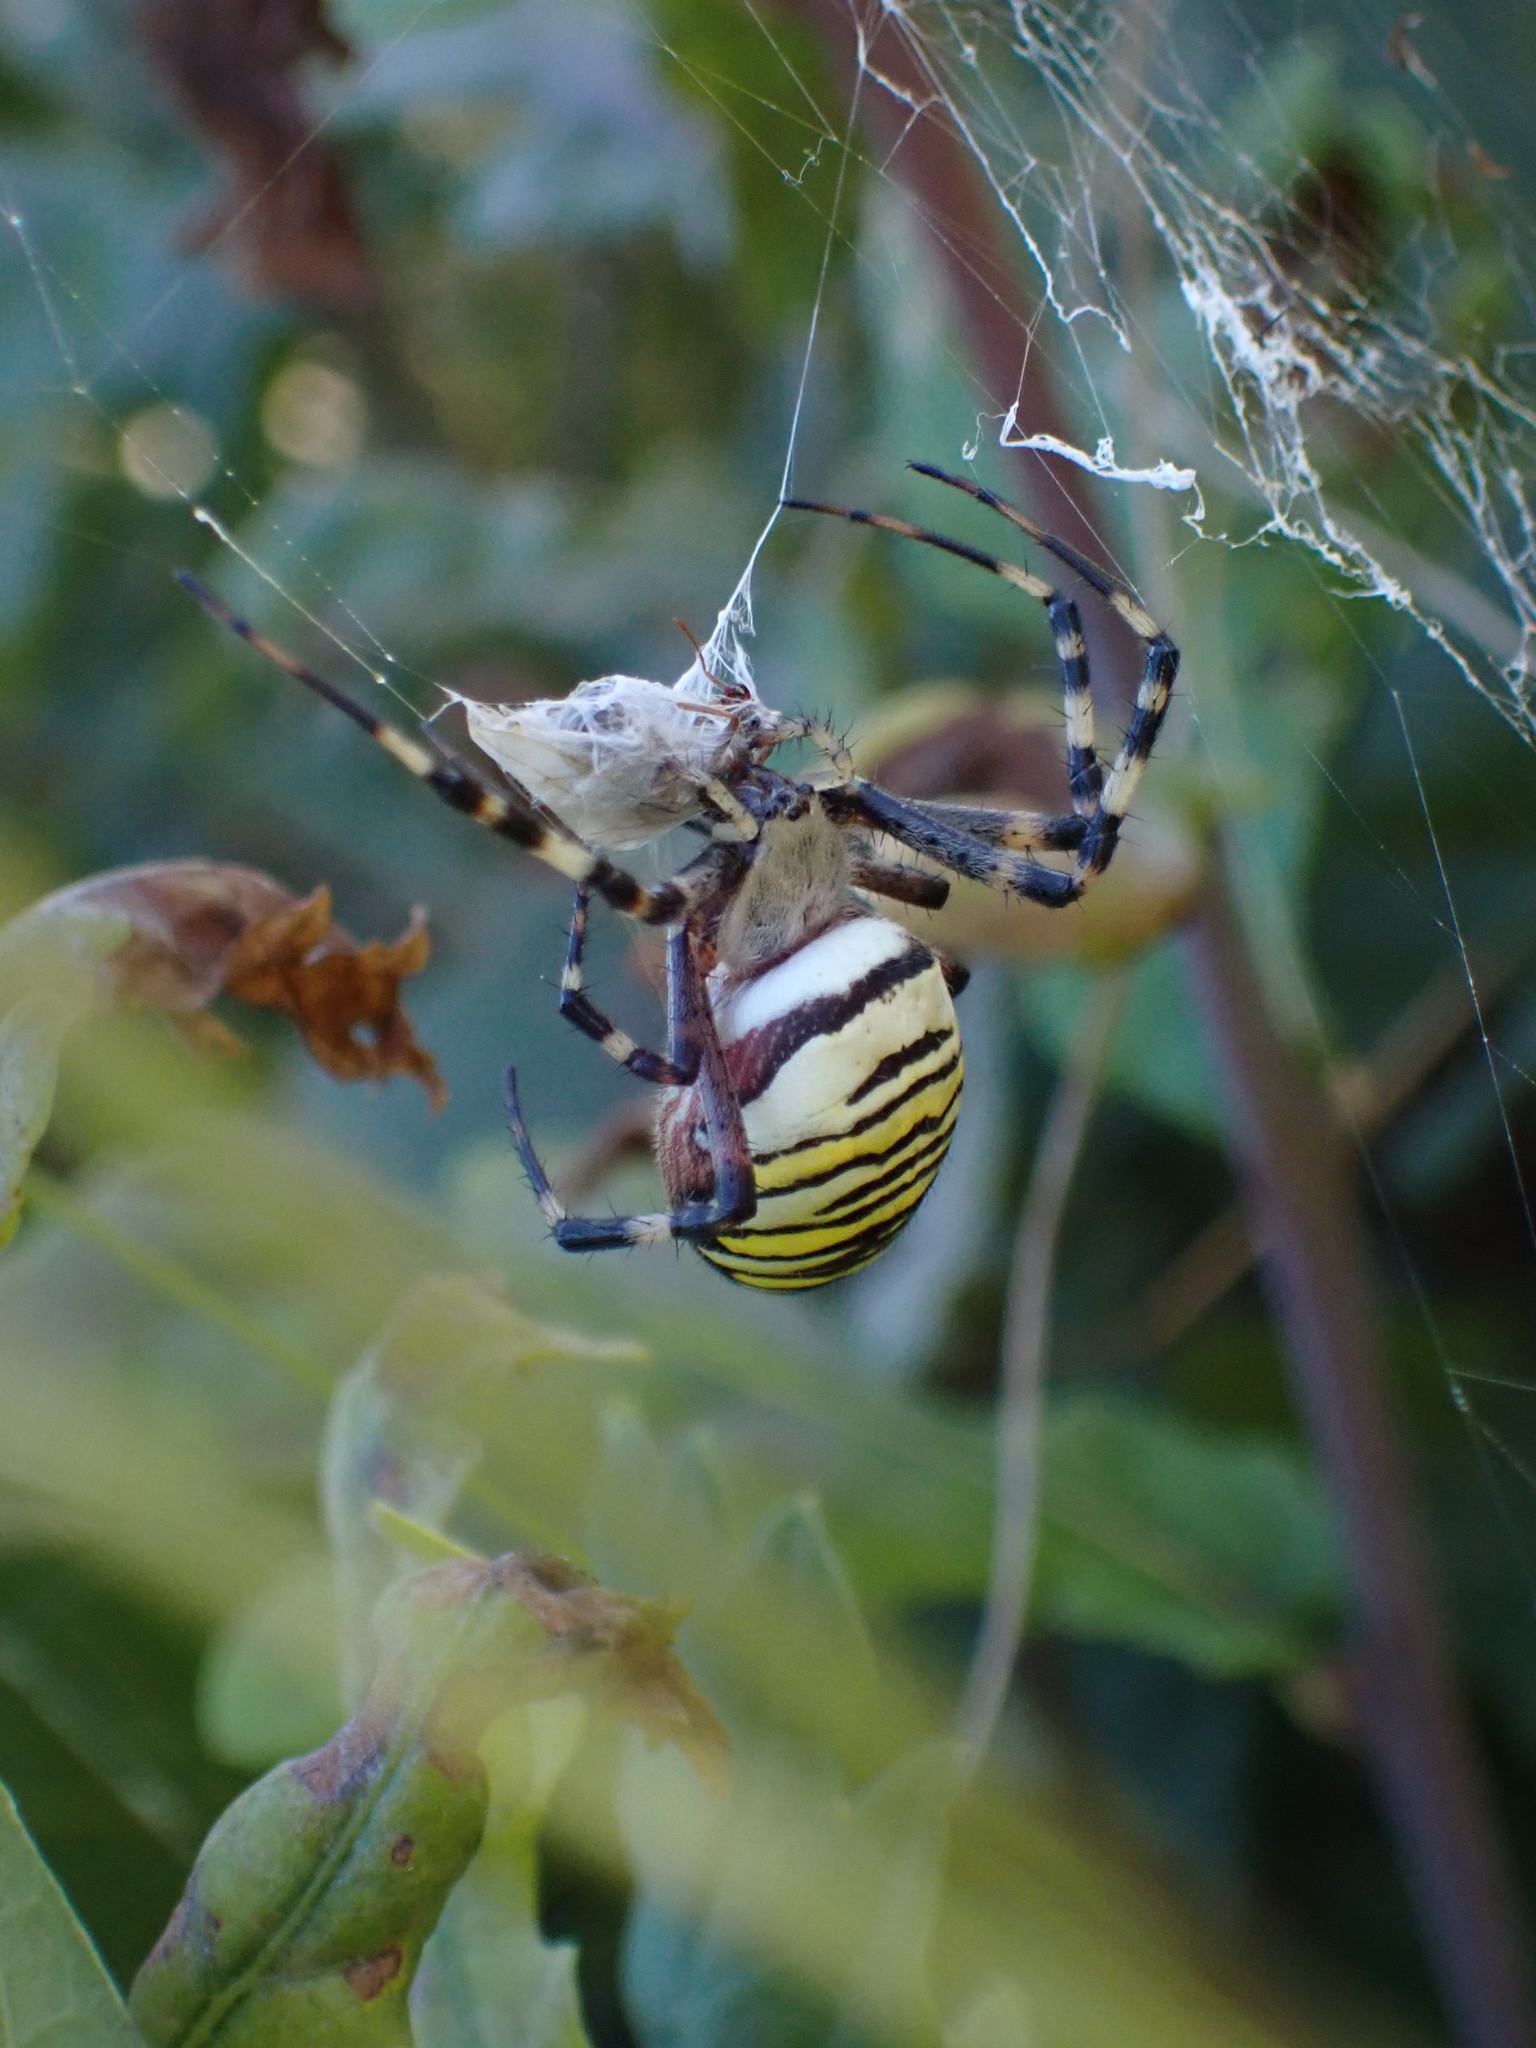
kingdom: Animalia
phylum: Arthropoda
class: Arachnida
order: Araneae
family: Araneidae
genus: Argiope
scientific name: Argiope bruennichi
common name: Wasp spider
